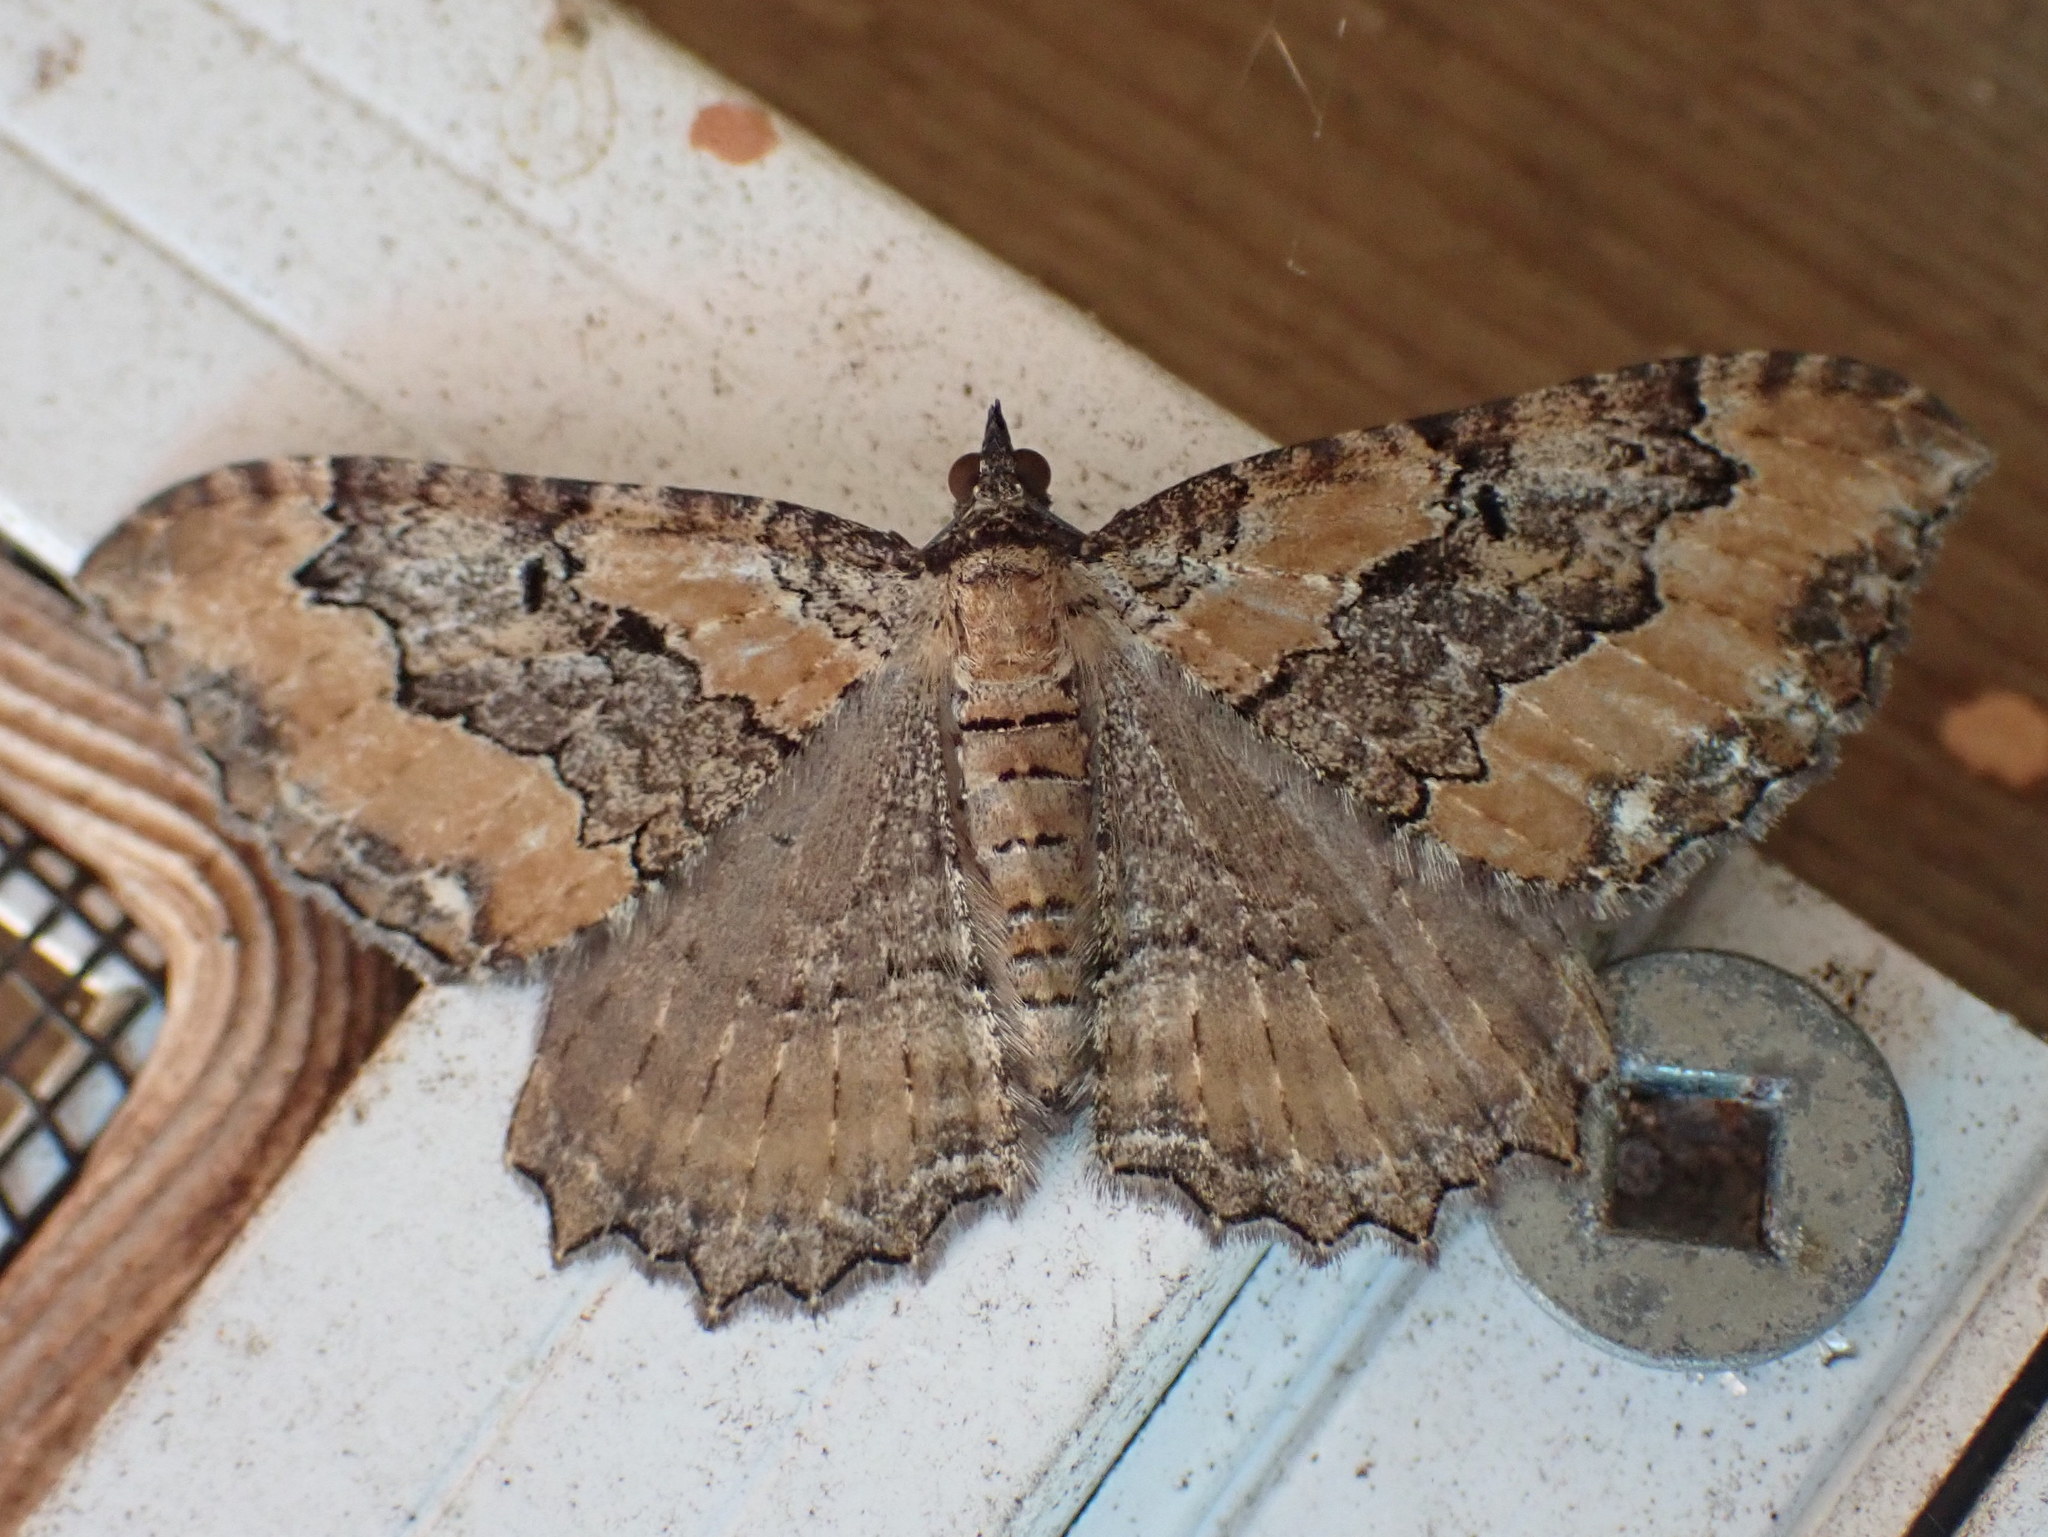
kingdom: Animalia
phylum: Arthropoda
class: Insecta
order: Lepidoptera
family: Geometridae
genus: Rheumaptera
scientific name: Rheumaptera
